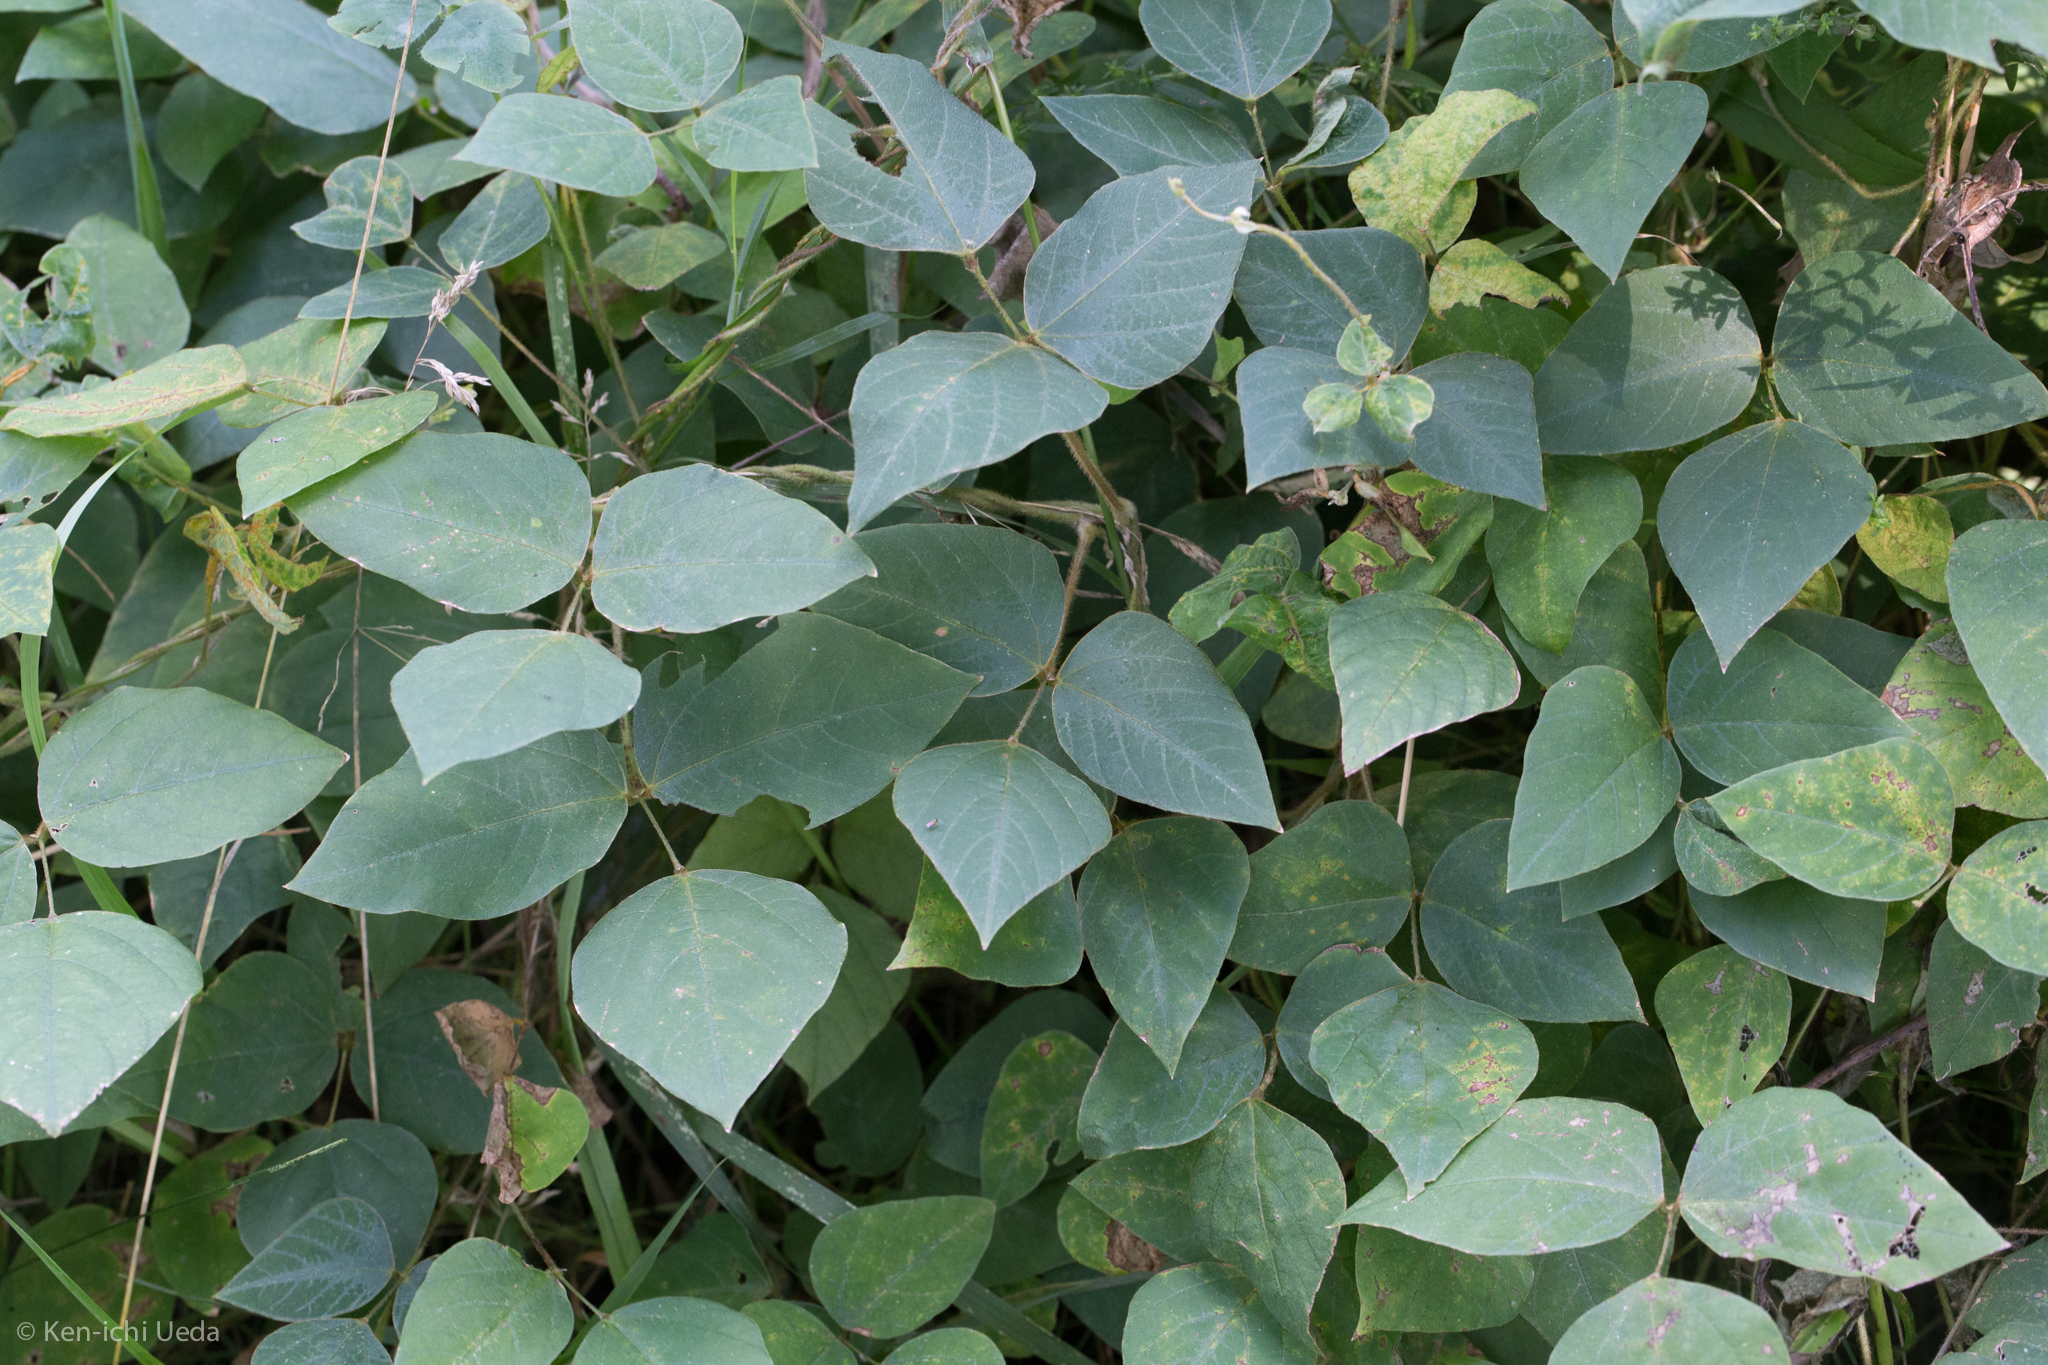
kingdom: Plantae
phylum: Tracheophyta
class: Magnoliopsida
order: Fabales
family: Fabaceae
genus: Amphicarpaea
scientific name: Amphicarpaea bracteata
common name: American hog peanut
